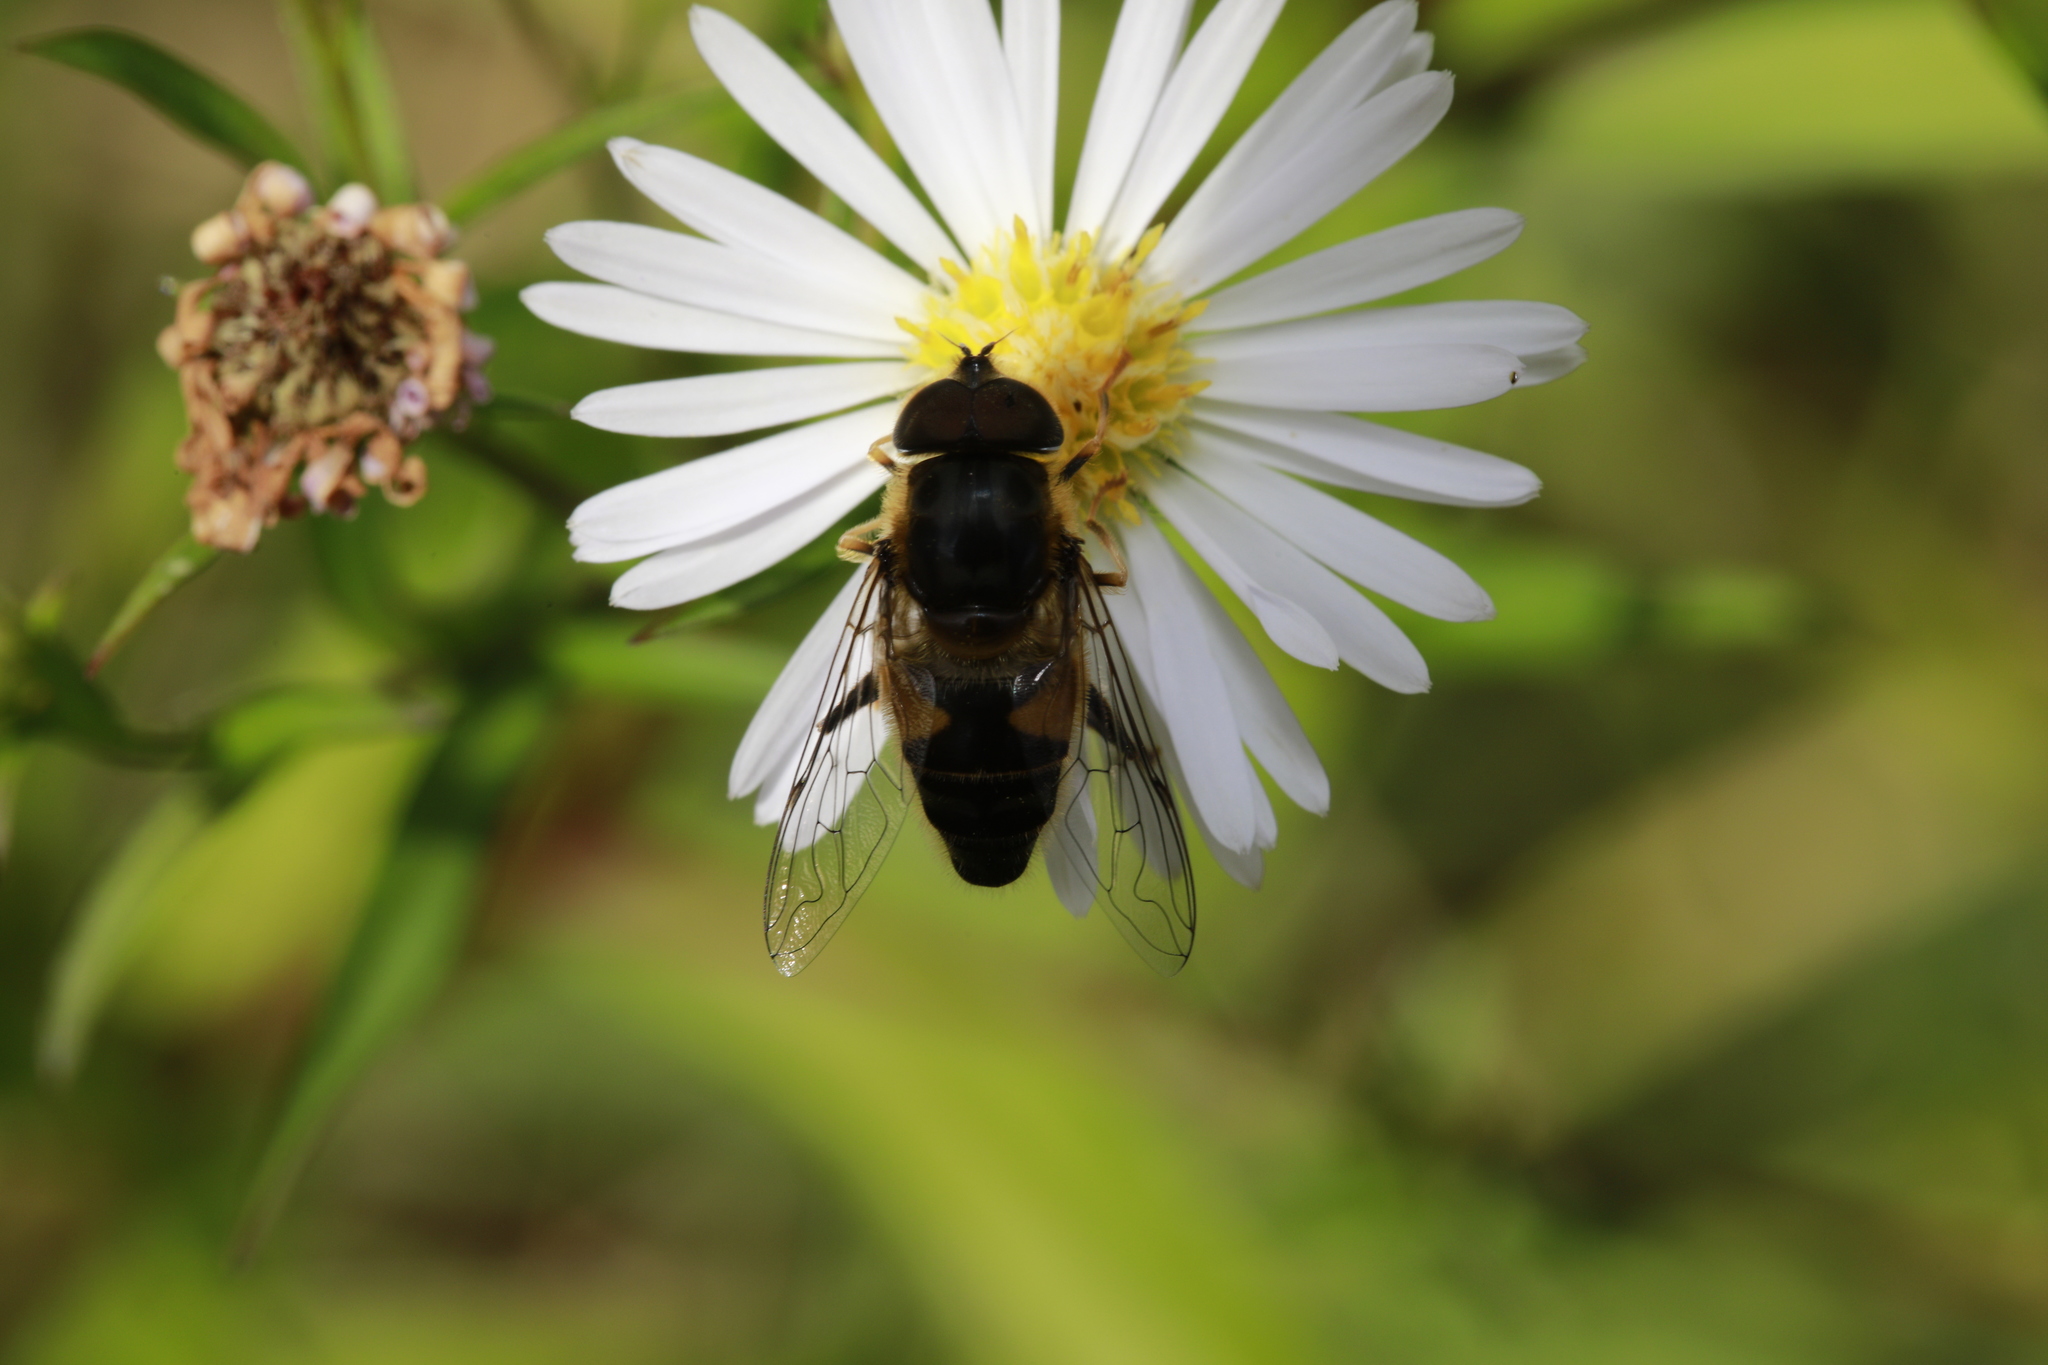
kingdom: Animalia
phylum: Arthropoda
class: Insecta
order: Diptera
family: Syrphidae
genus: Eristalis
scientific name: Eristalis pertinax
